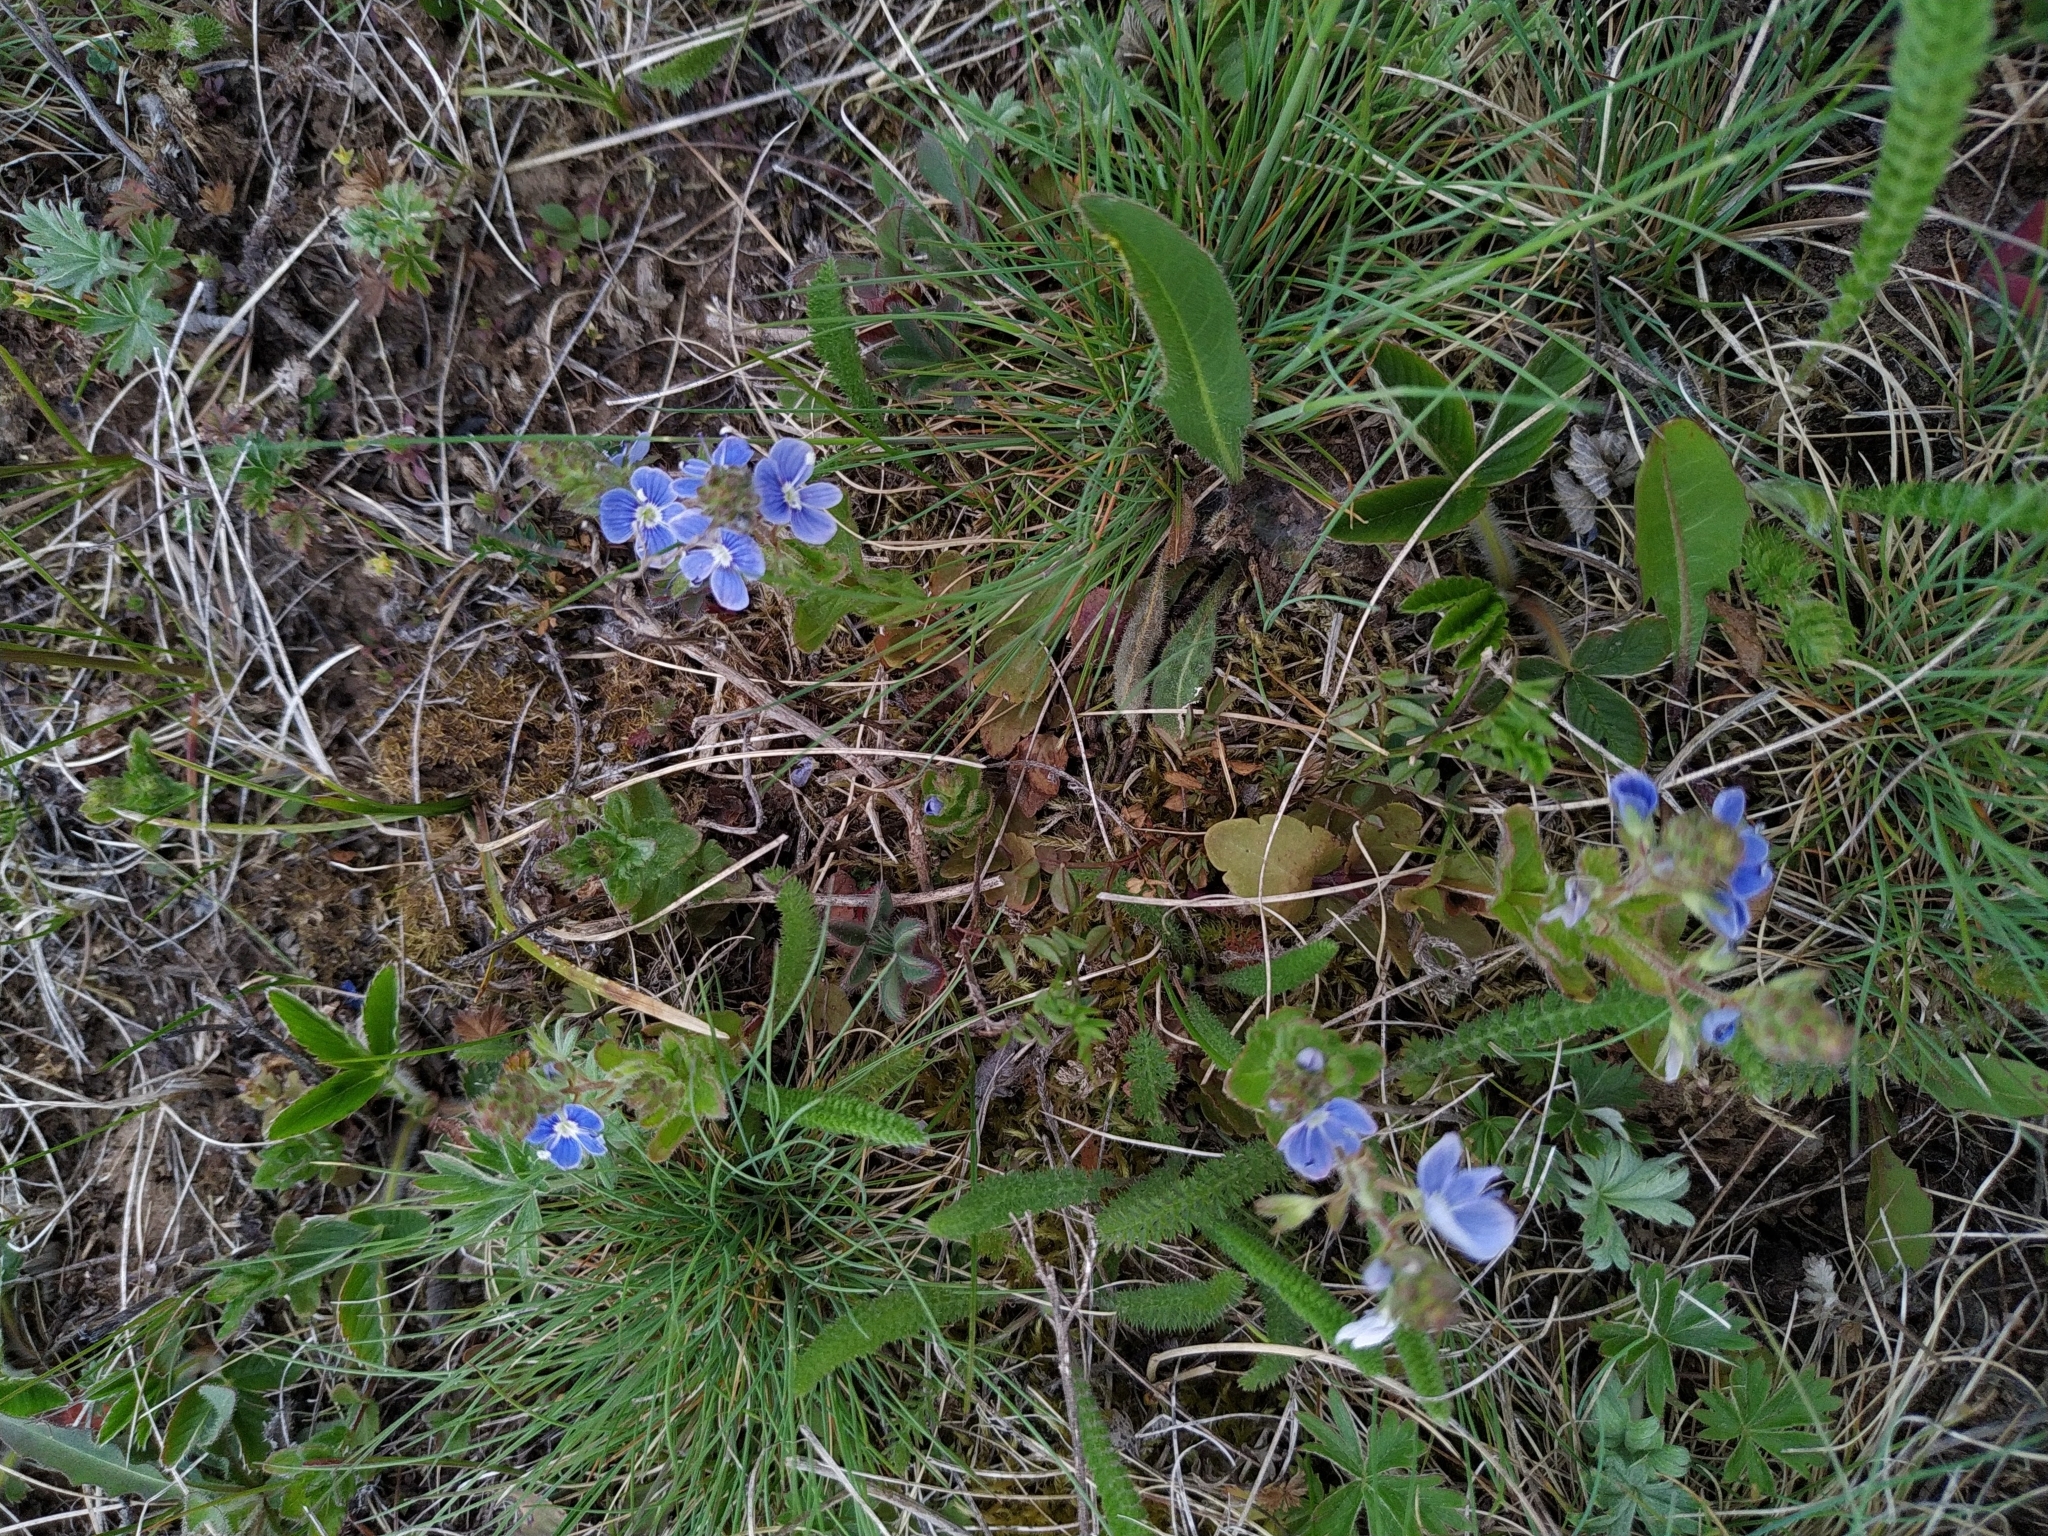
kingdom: Plantae
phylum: Tracheophyta
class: Magnoliopsida
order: Lamiales
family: Plantaginaceae
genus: Veronica
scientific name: Veronica chamaedrys
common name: Germander speedwell
